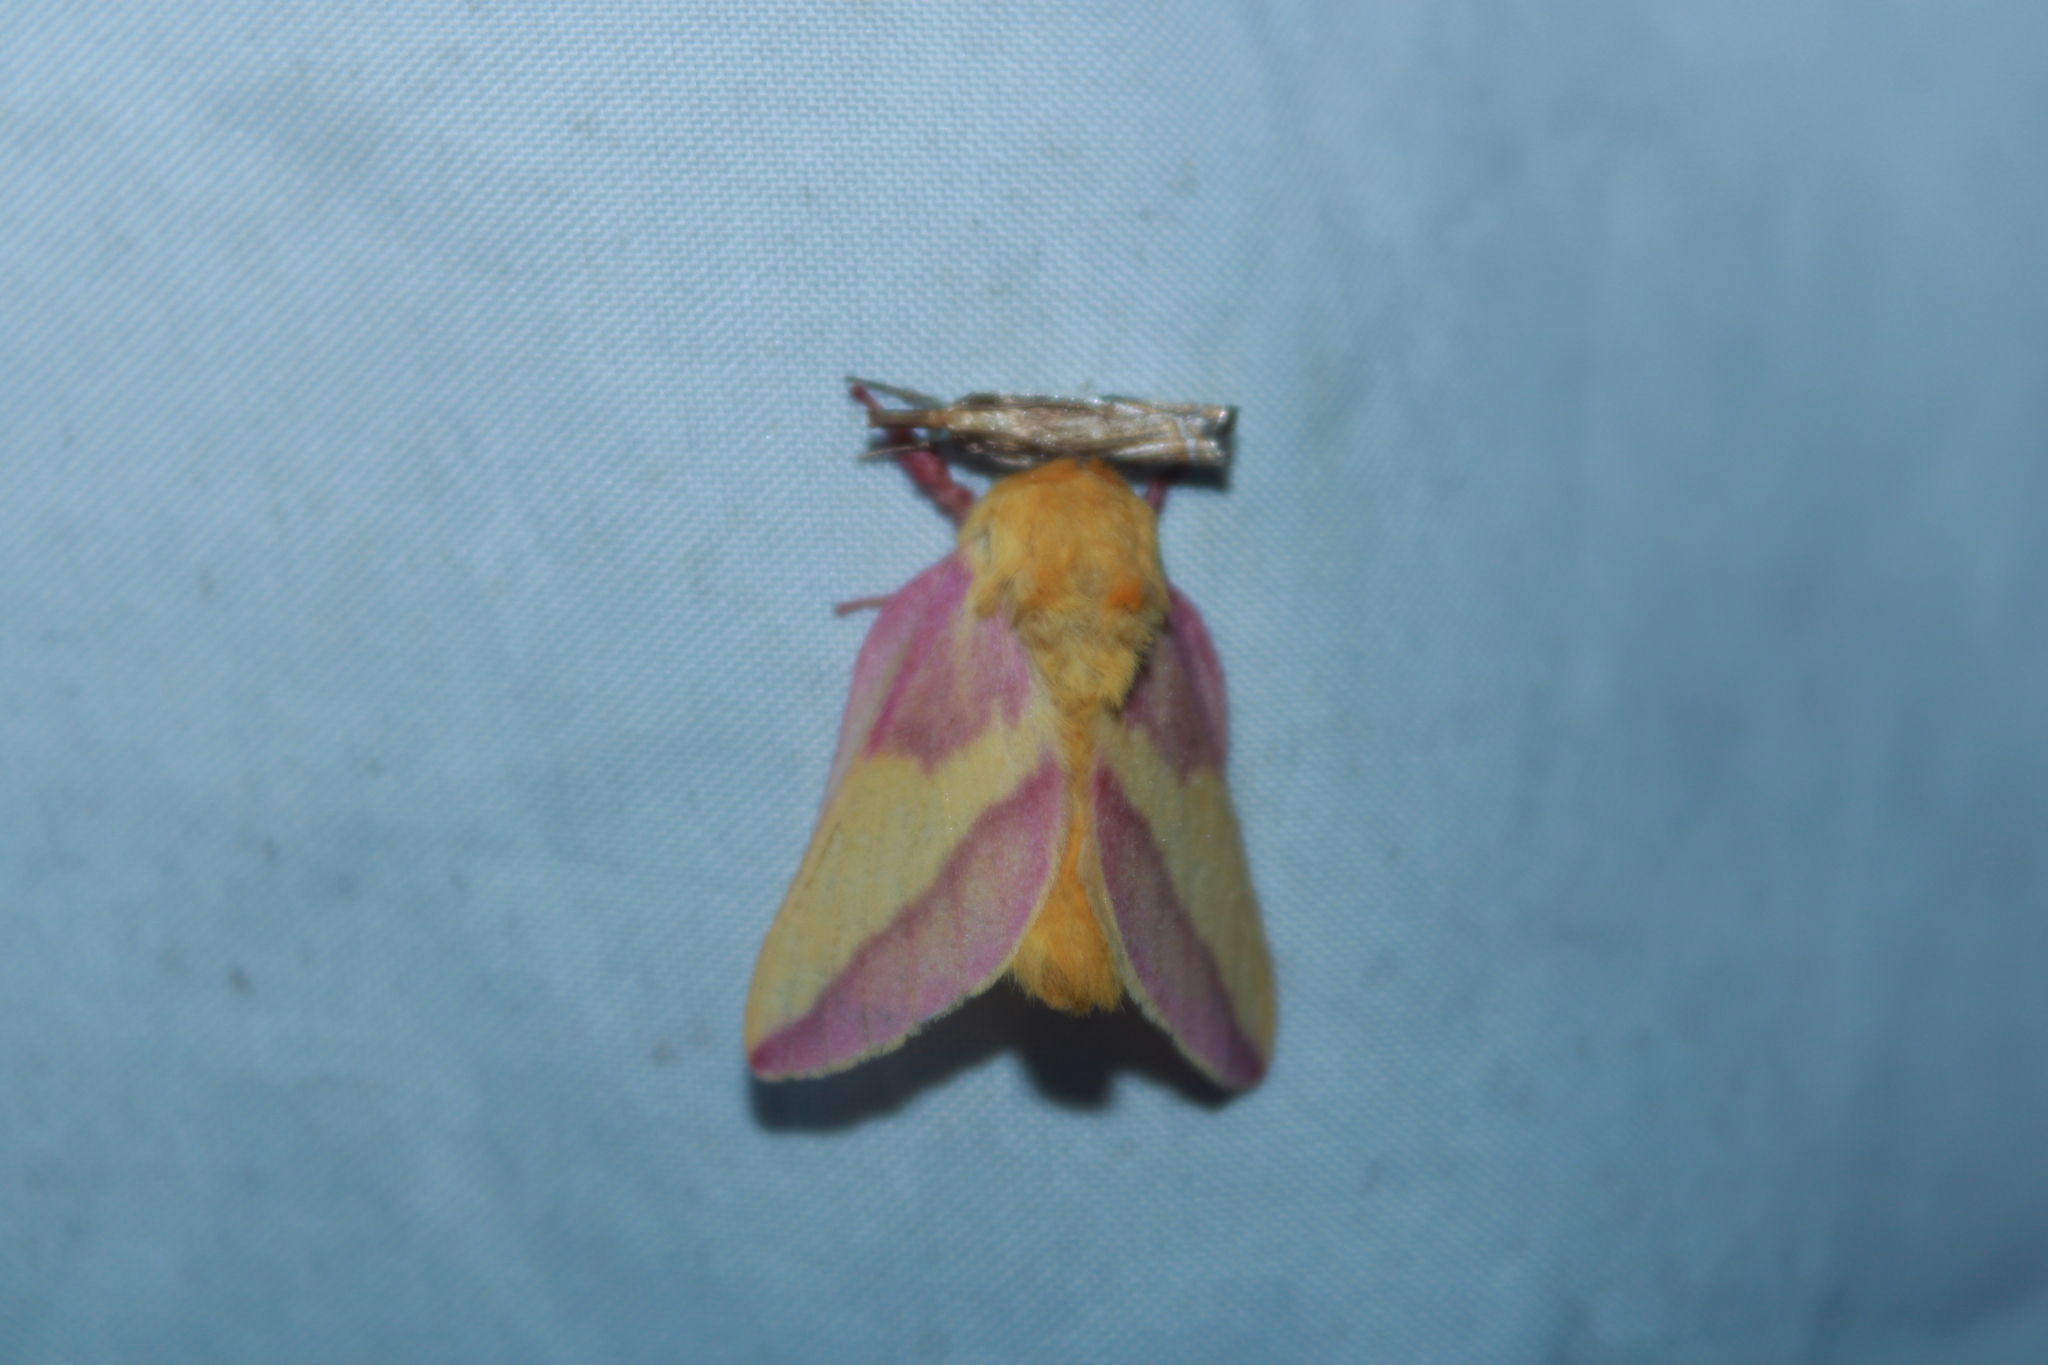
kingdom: Animalia
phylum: Arthropoda
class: Insecta
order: Lepidoptera
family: Saturniidae
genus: Dryocampa
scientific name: Dryocampa rubicunda
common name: Rosy maple moth
